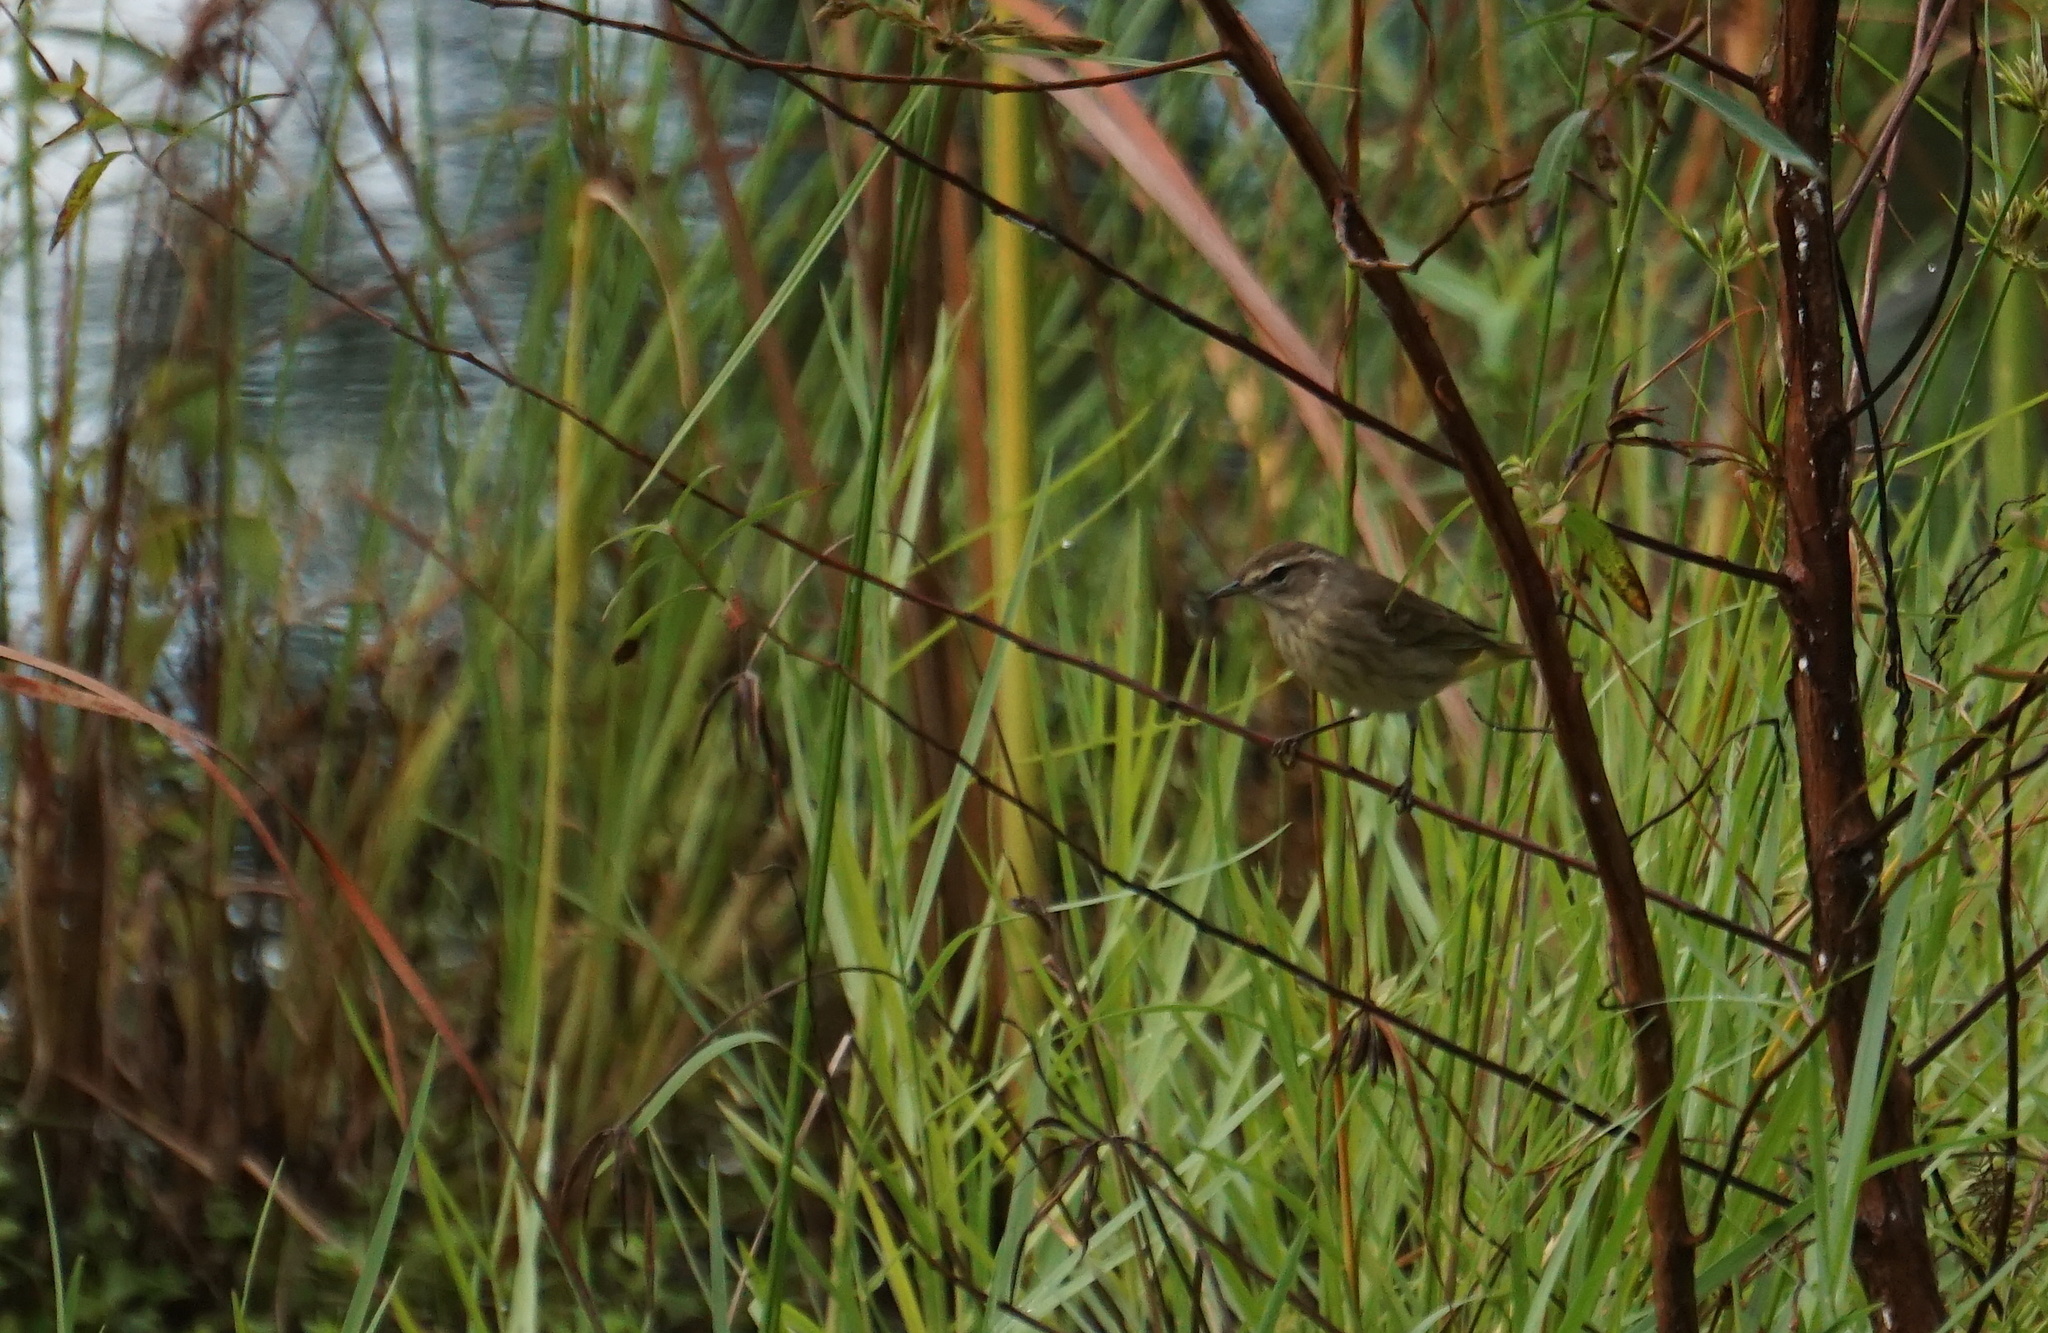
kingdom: Animalia
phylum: Chordata
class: Aves
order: Passeriformes
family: Parulidae
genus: Setophaga
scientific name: Setophaga palmarum
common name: Palm warbler
